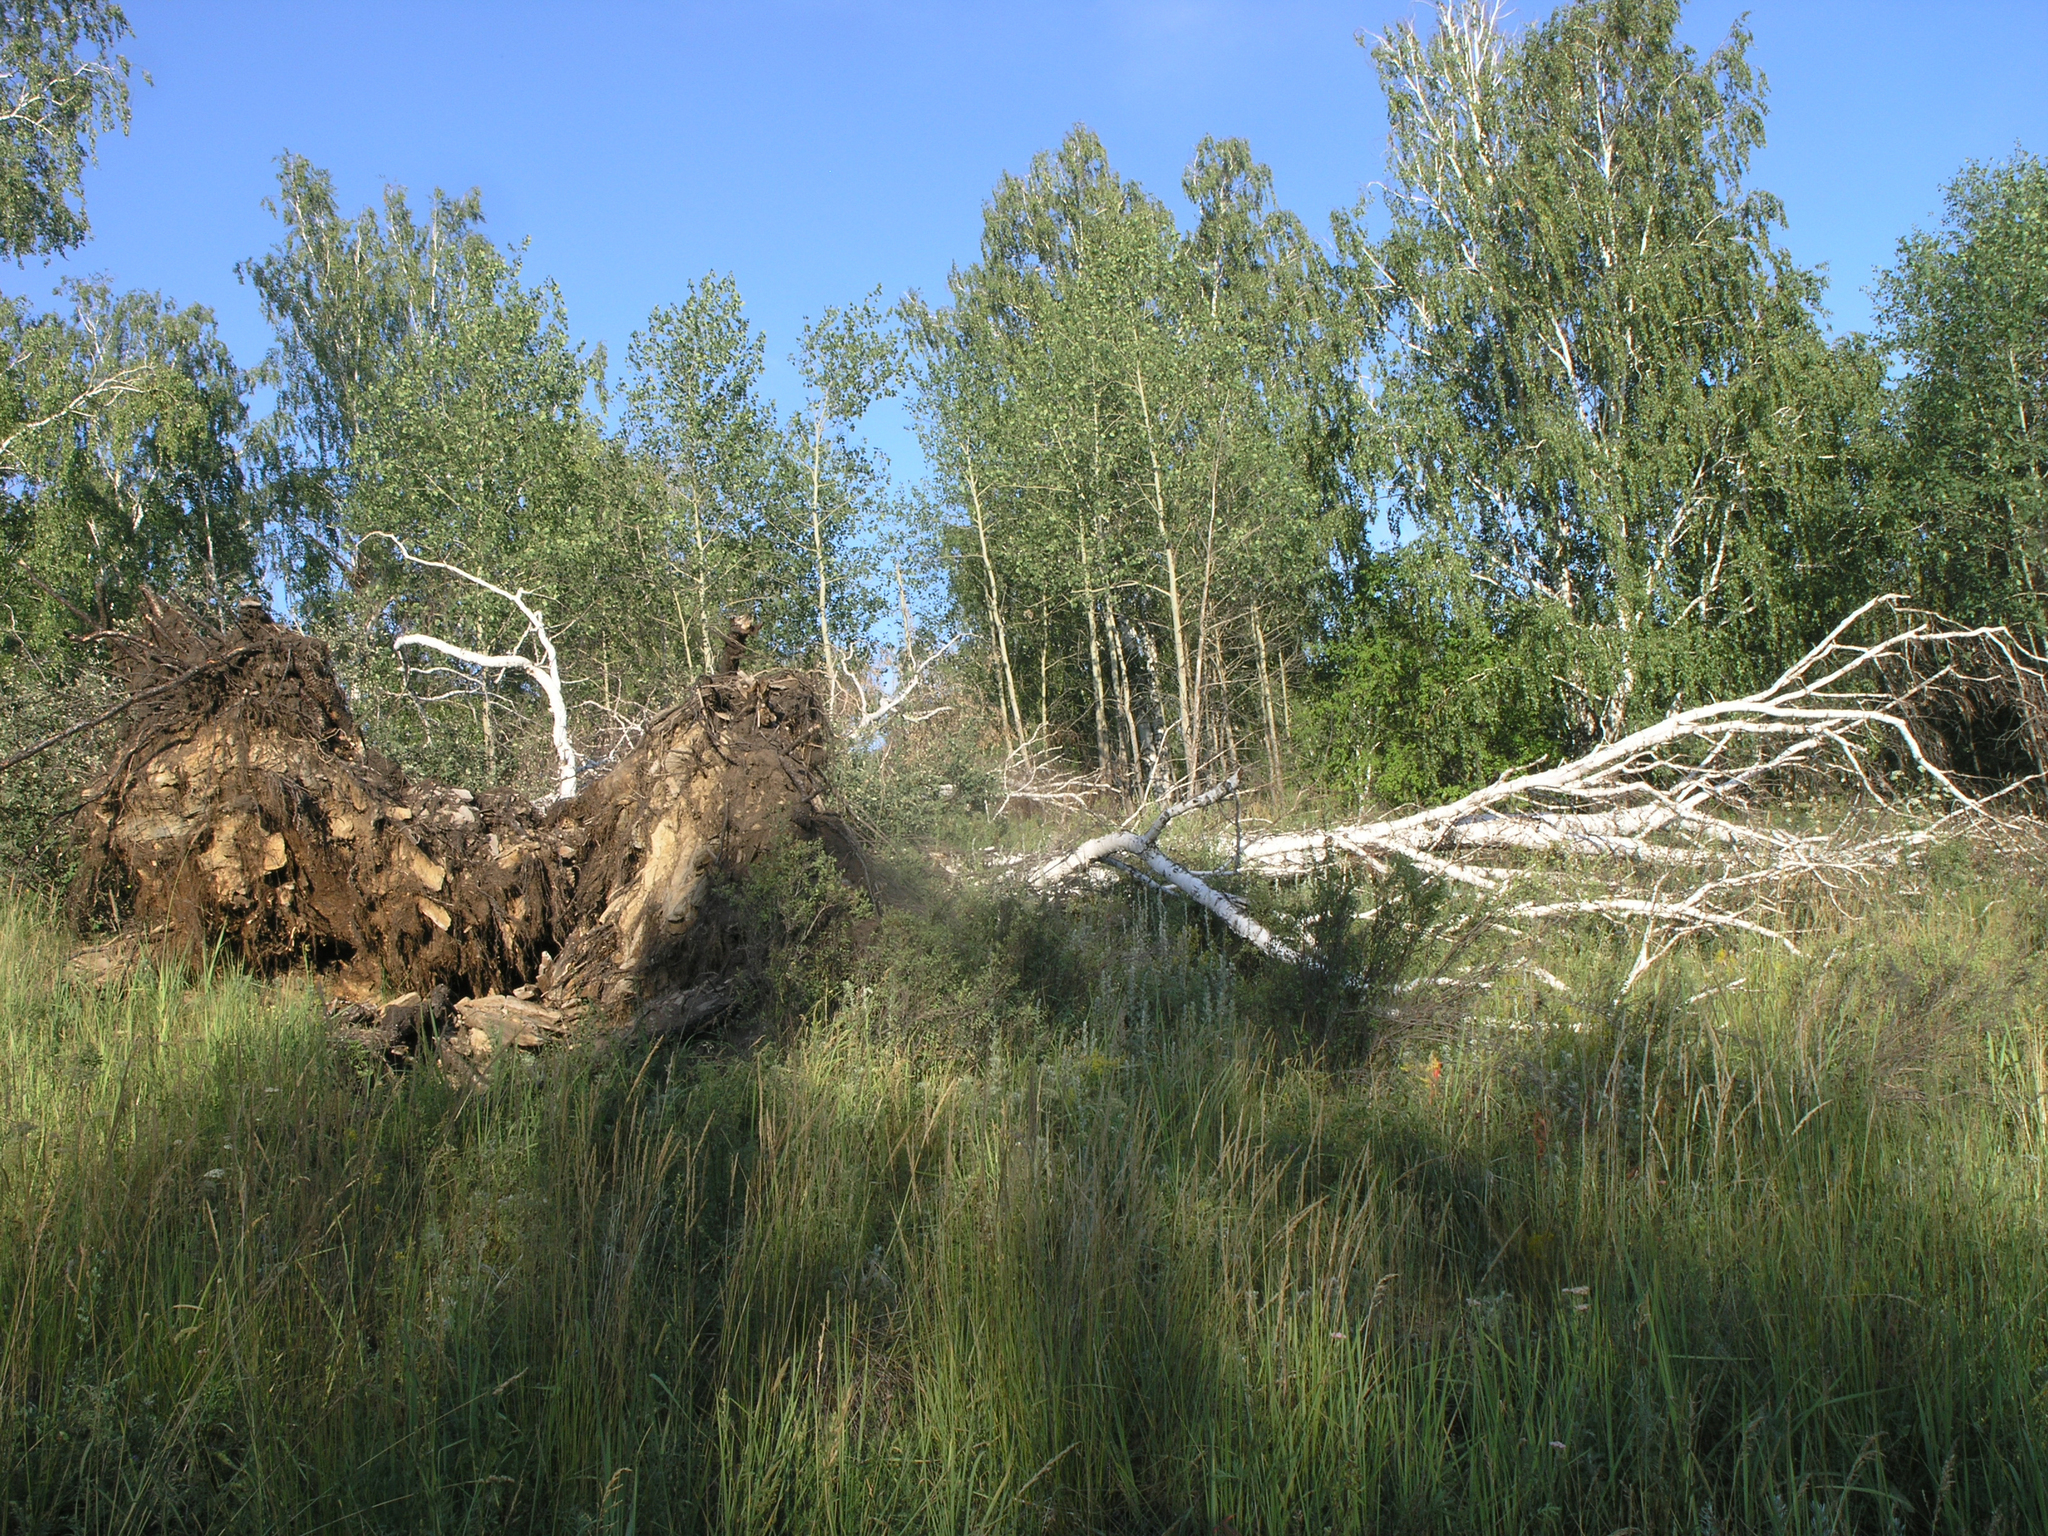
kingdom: Plantae
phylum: Tracheophyta
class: Magnoliopsida
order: Fagales
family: Betulaceae
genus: Betula
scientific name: Betula pendula
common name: Silver birch
